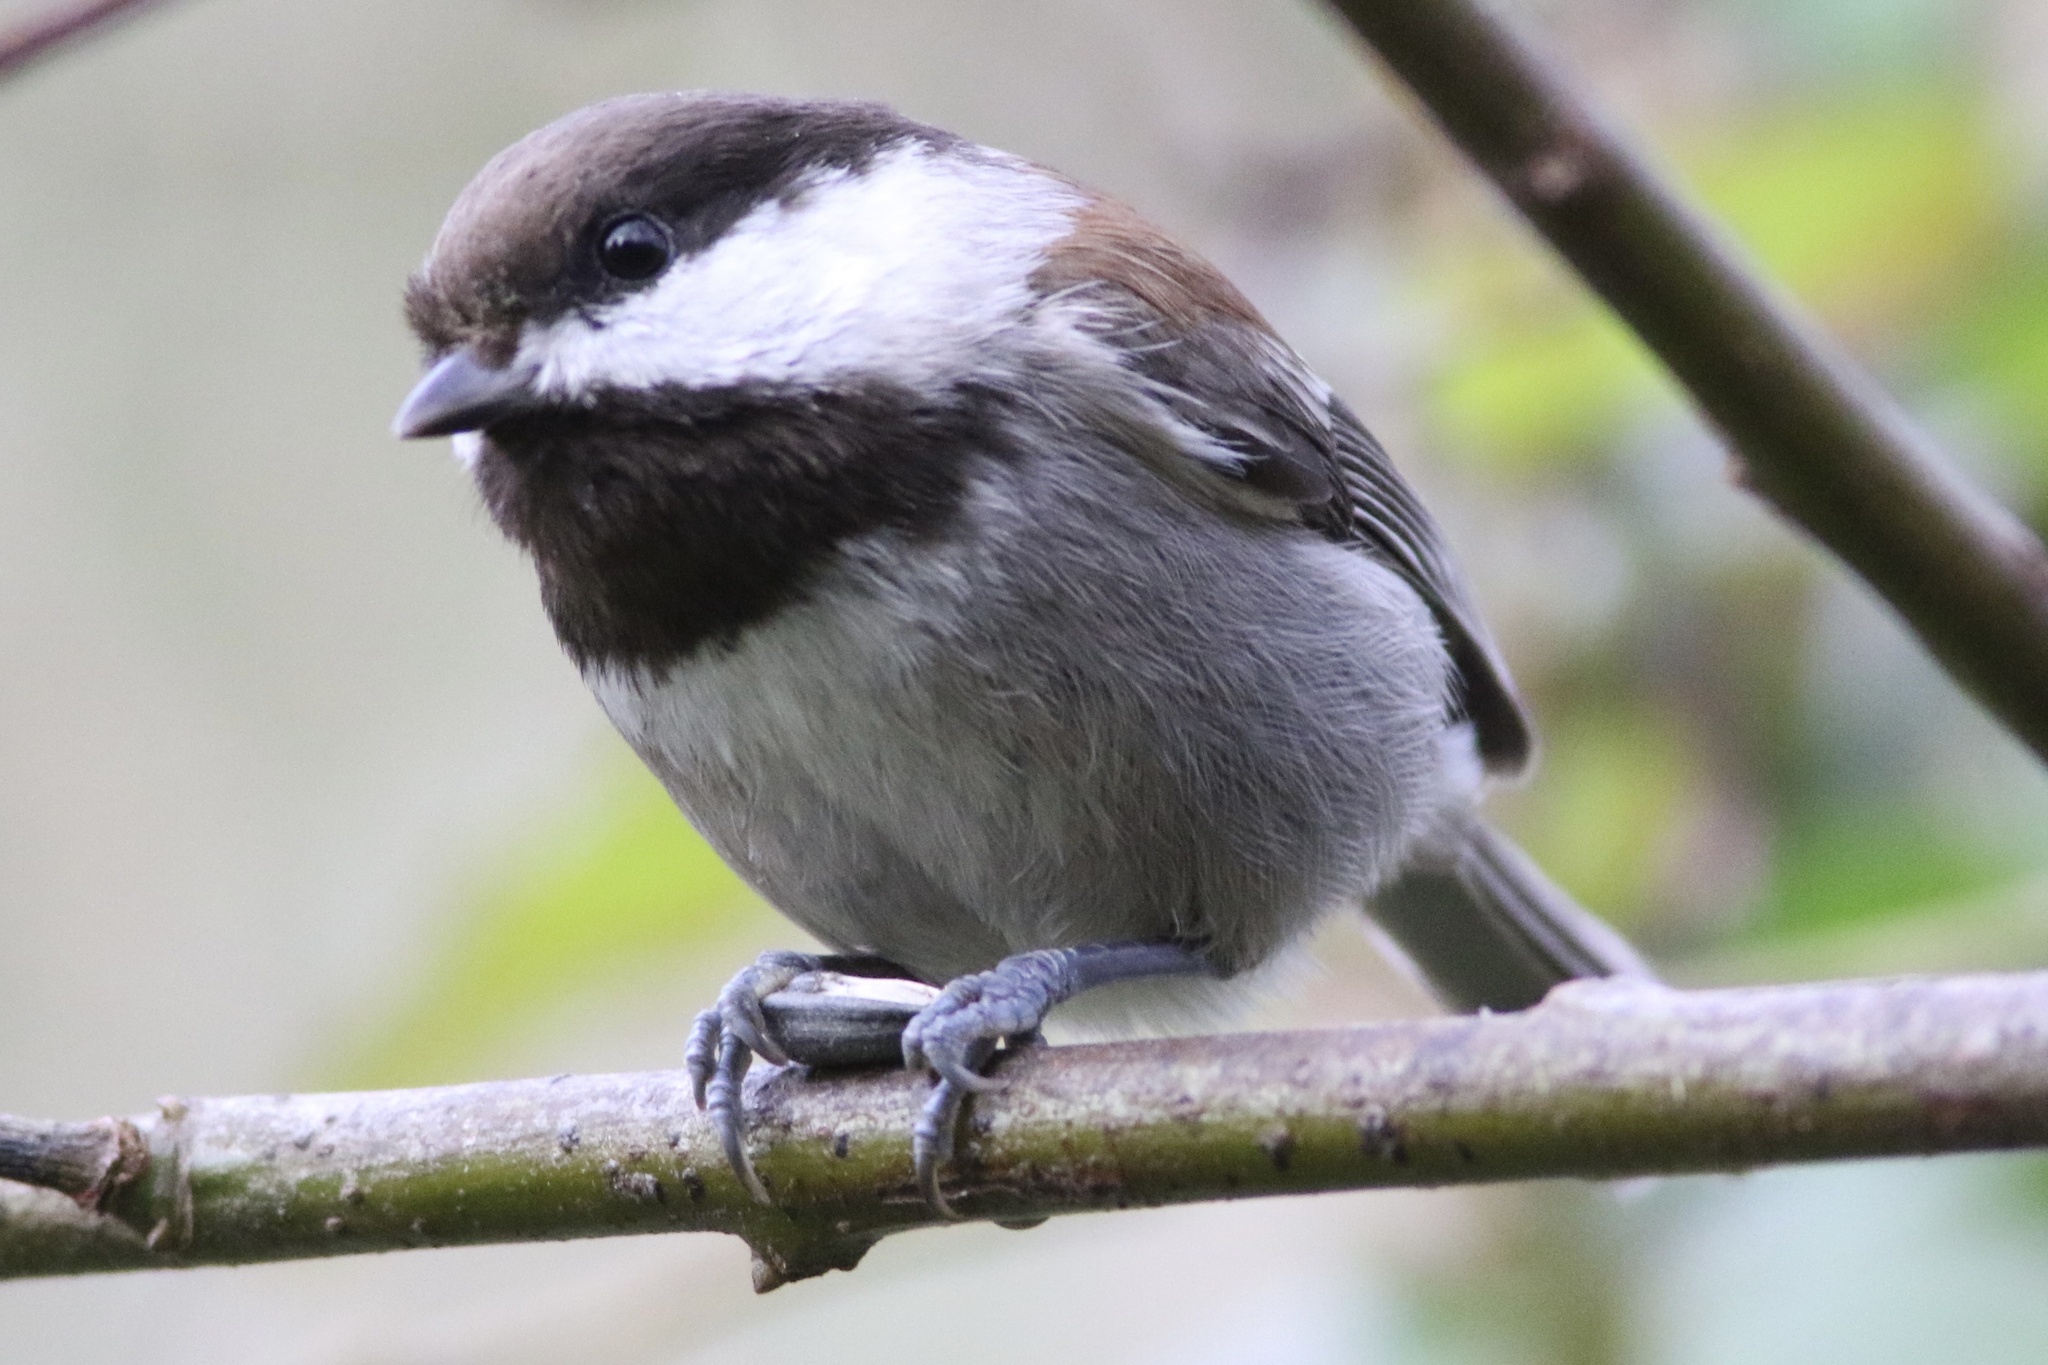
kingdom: Animalia
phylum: Chordata
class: Aves
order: Passeriformes
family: Paridae
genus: Poecile
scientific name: Poecile rufescens
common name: Chestnut-backed chickadee
